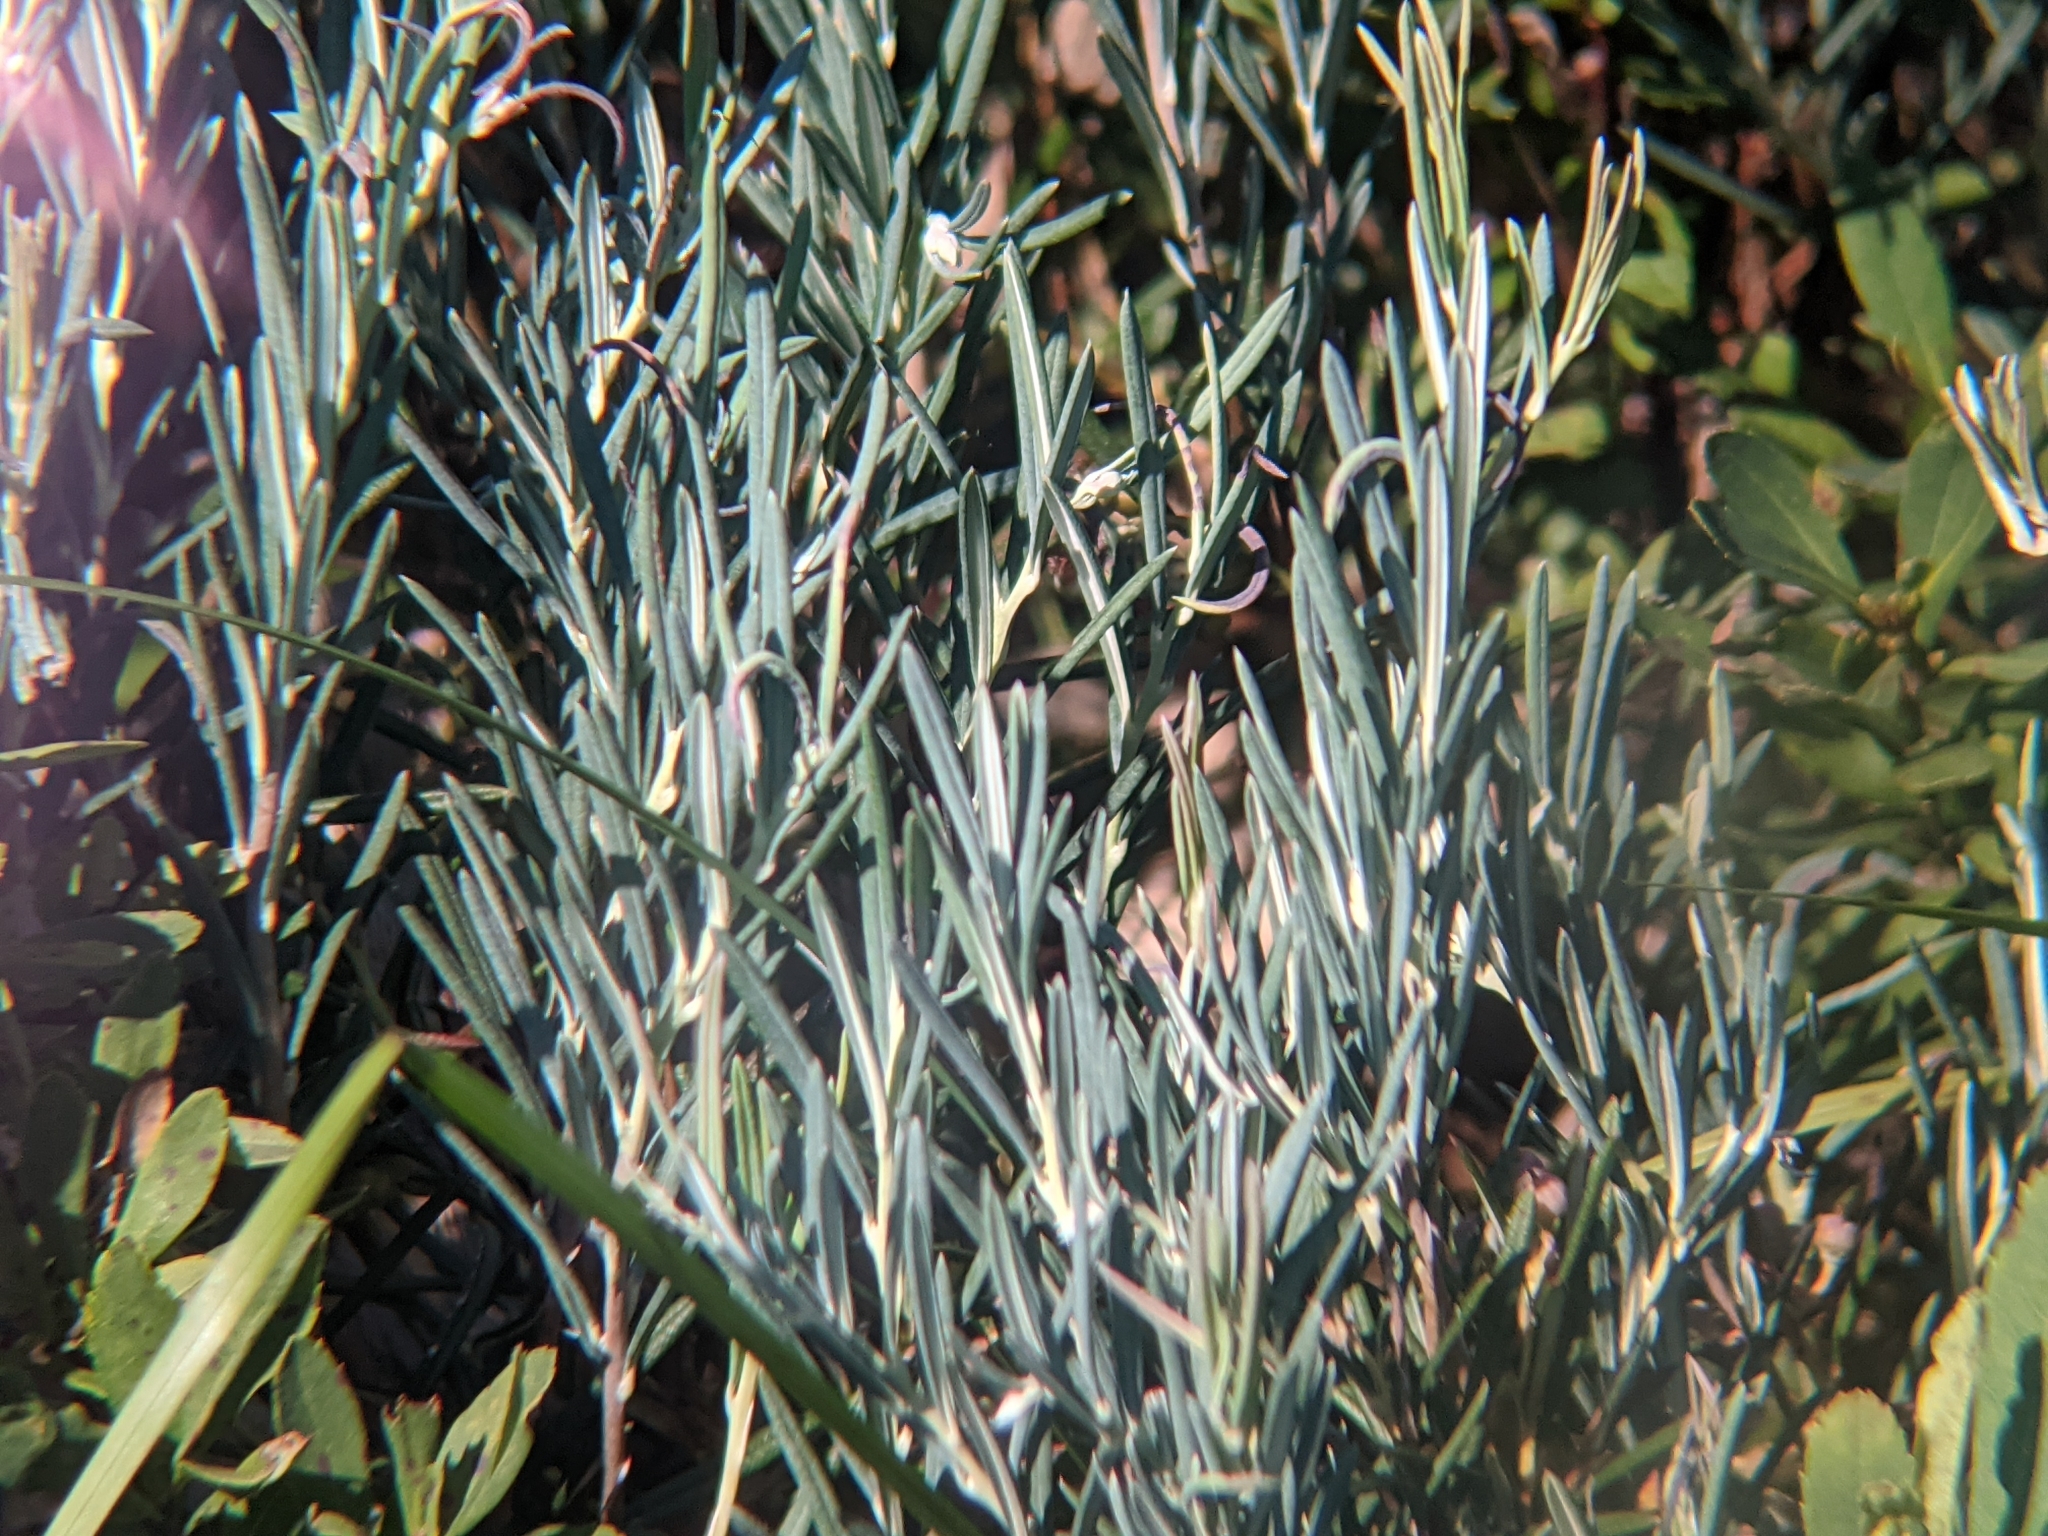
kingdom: Plantae
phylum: Tracheophyta
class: Magnoliopsida
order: Ericales
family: Ericaceae
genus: Andromeda
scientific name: Andromeda polifolia
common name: Bog-rosemary
